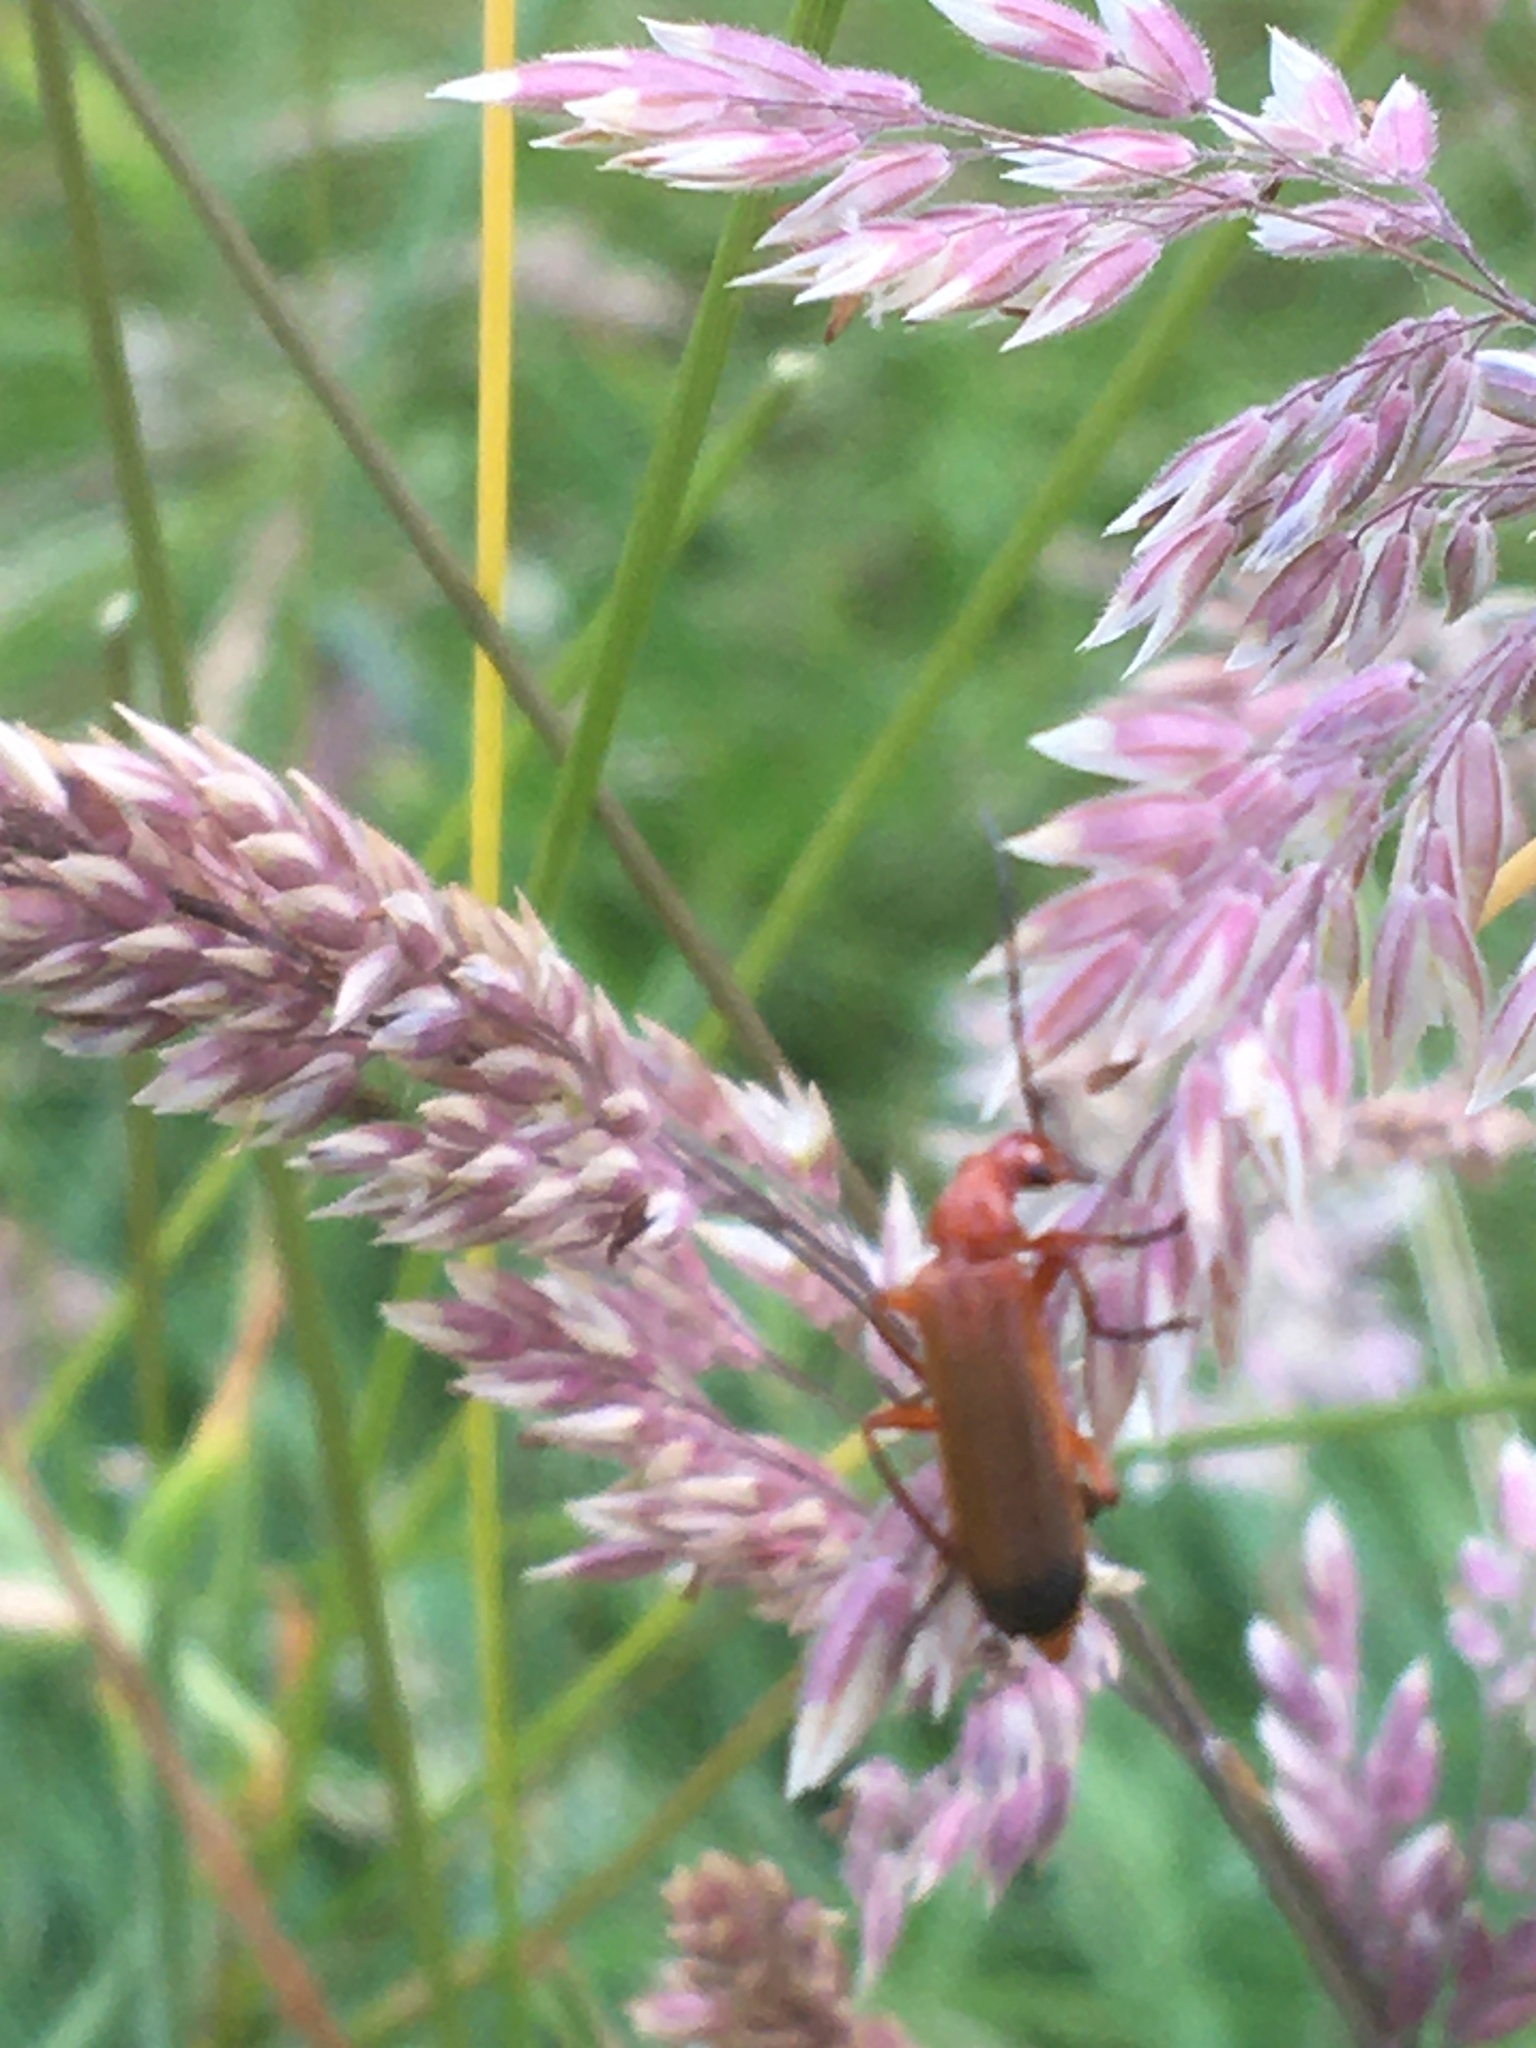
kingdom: Animalia
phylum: Arthropoda
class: Insecta
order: Coleoptera
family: Cantharidae
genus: Rhagonycha
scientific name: Rhagonycha fulva
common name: Common red soldier beetle
